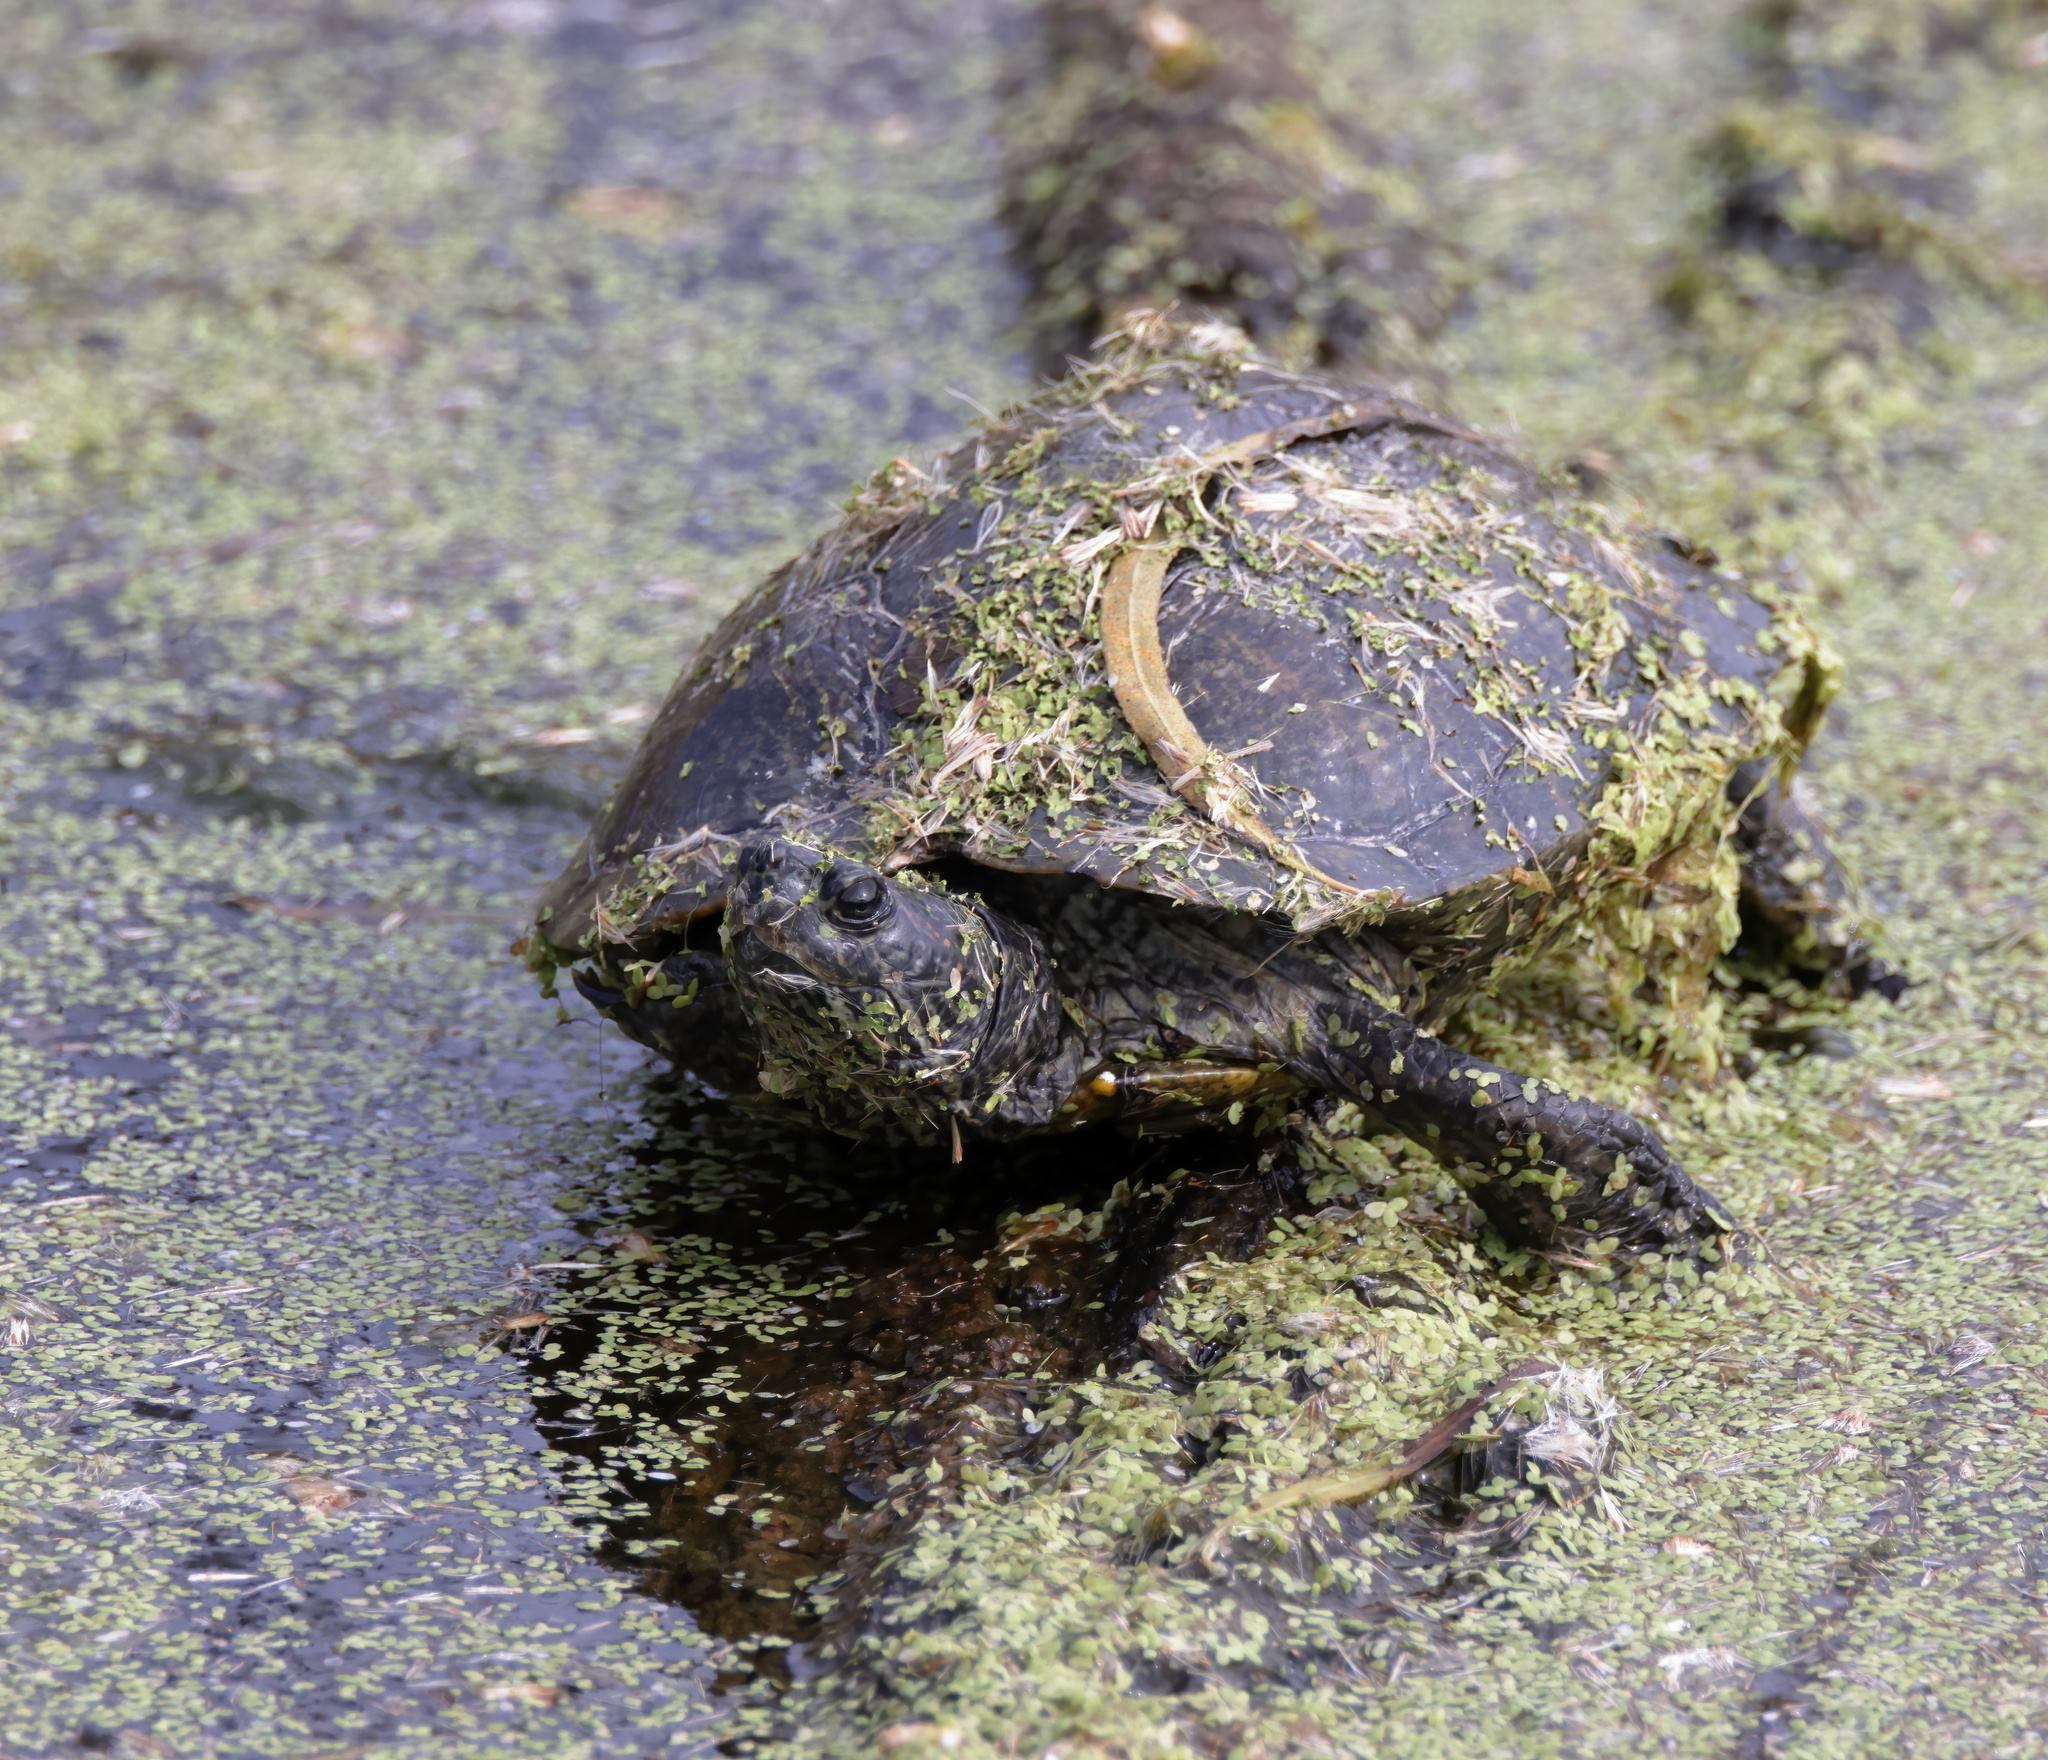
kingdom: Animalia
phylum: Chordata
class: Testudines
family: Emydidae
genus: Trachemys
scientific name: Trachemys scripta
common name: Slider
